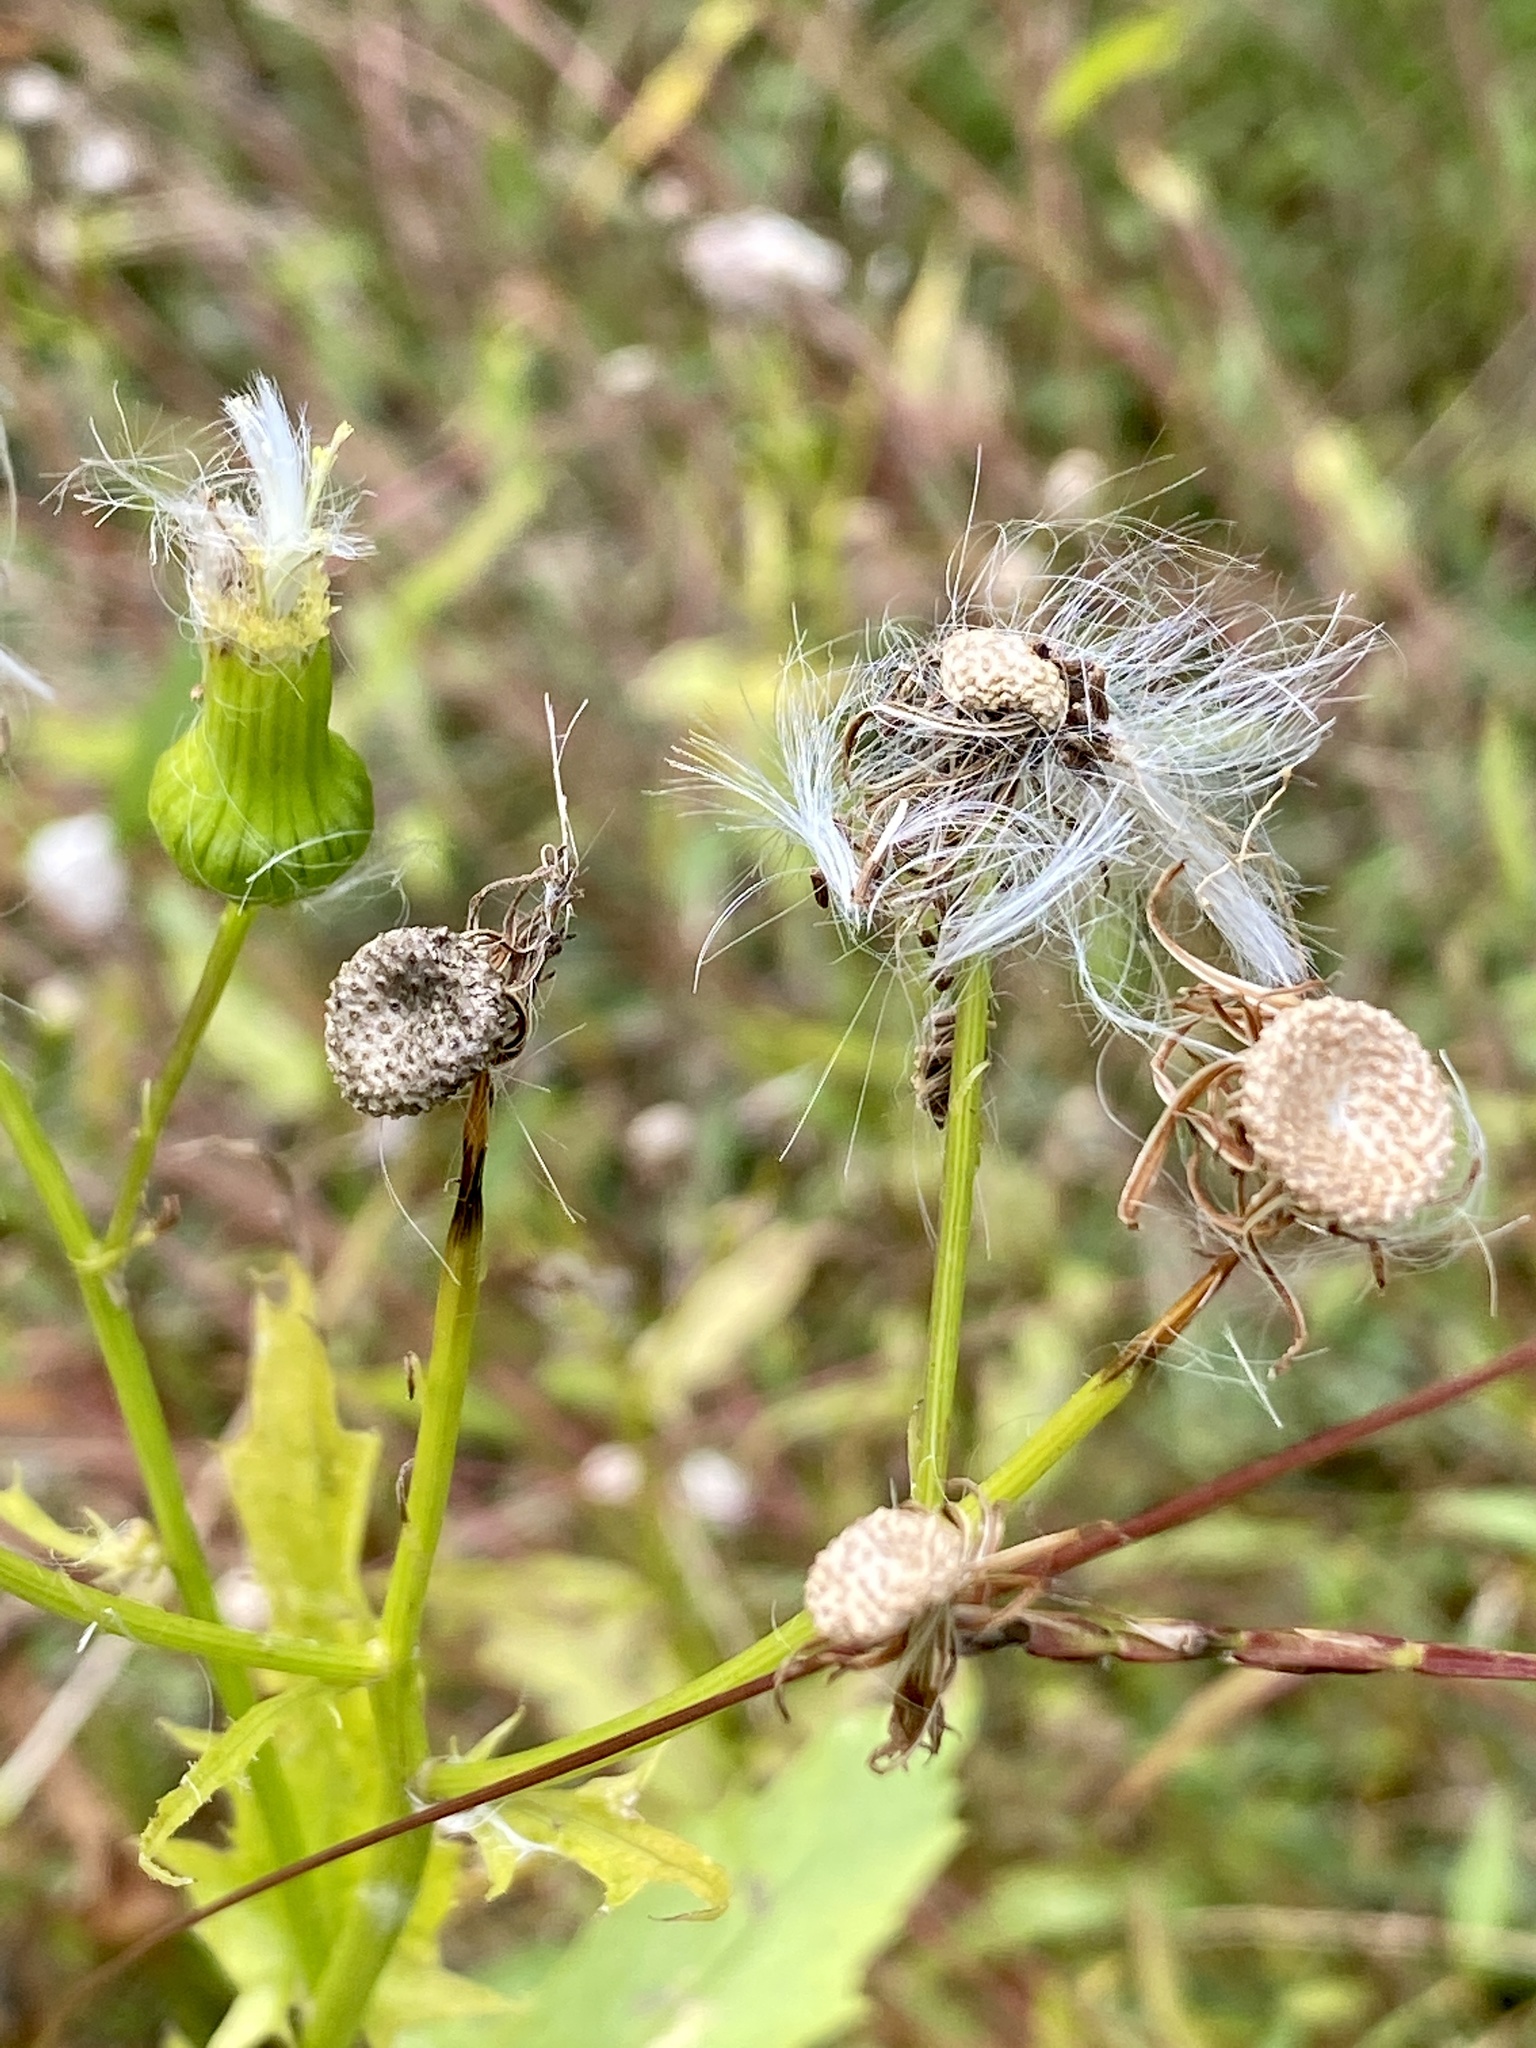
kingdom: Plantae
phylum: Tracheophyta
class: Magnoliopsida
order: Asterales
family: Asteraceae
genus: Erechtites
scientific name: Erechtites hieraciifolius
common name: American burnweed
